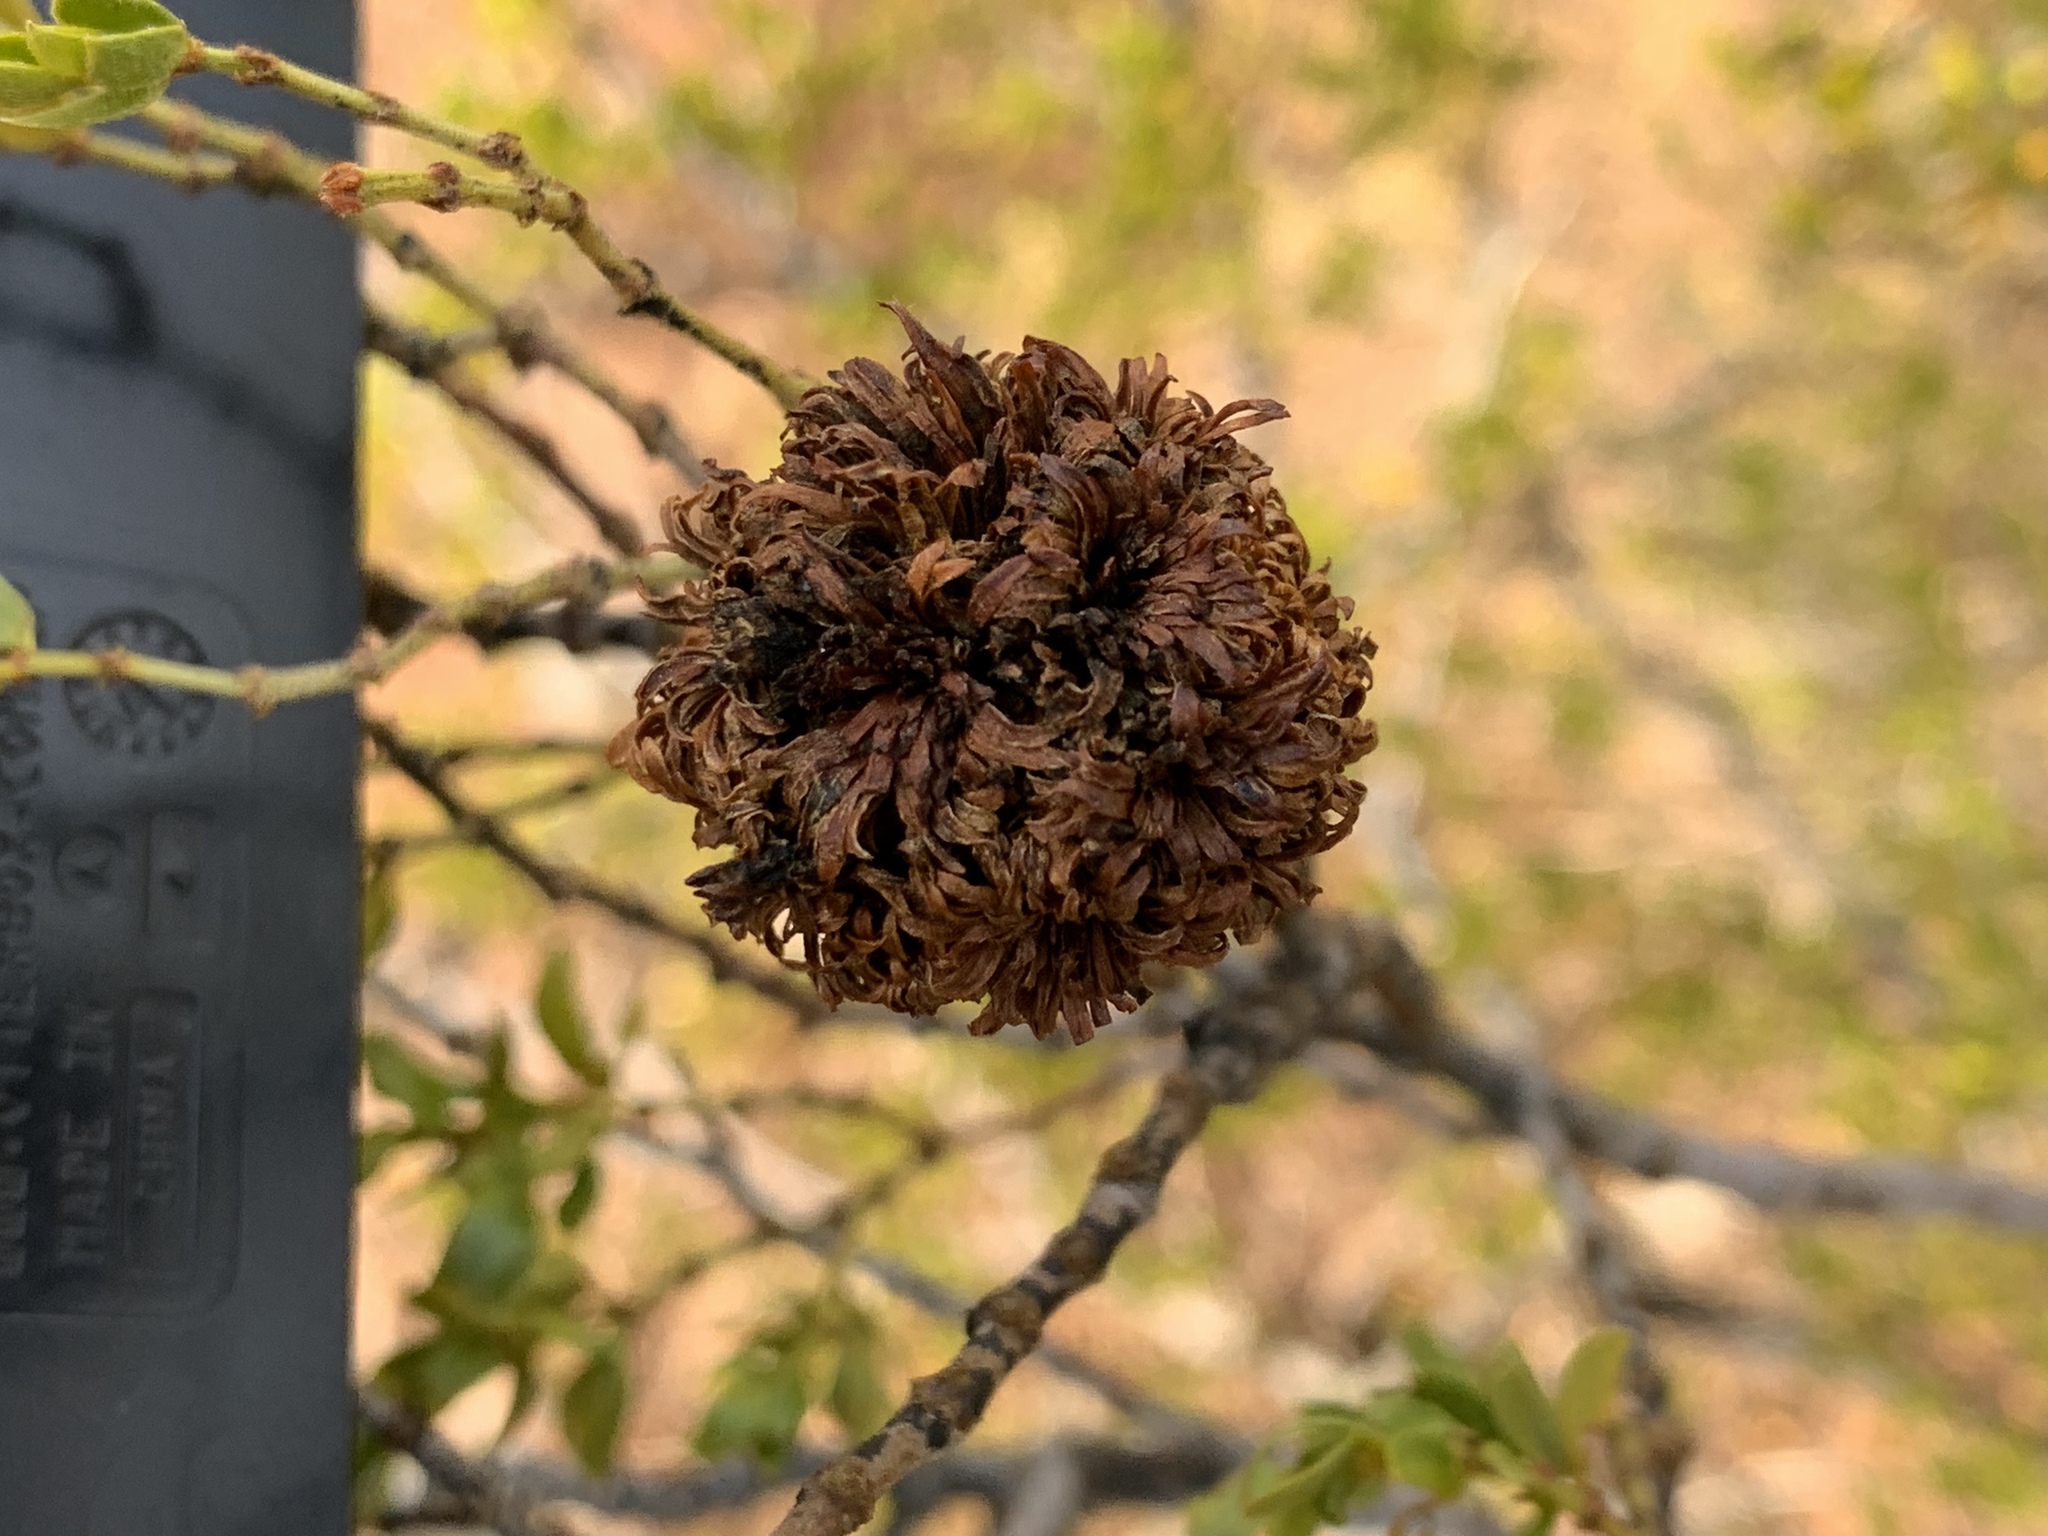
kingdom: Animalia
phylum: Arthropoda
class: Insecta
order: Diptera
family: Cecidomyiidae
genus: Asphondylia
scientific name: Asphondylia auripila
